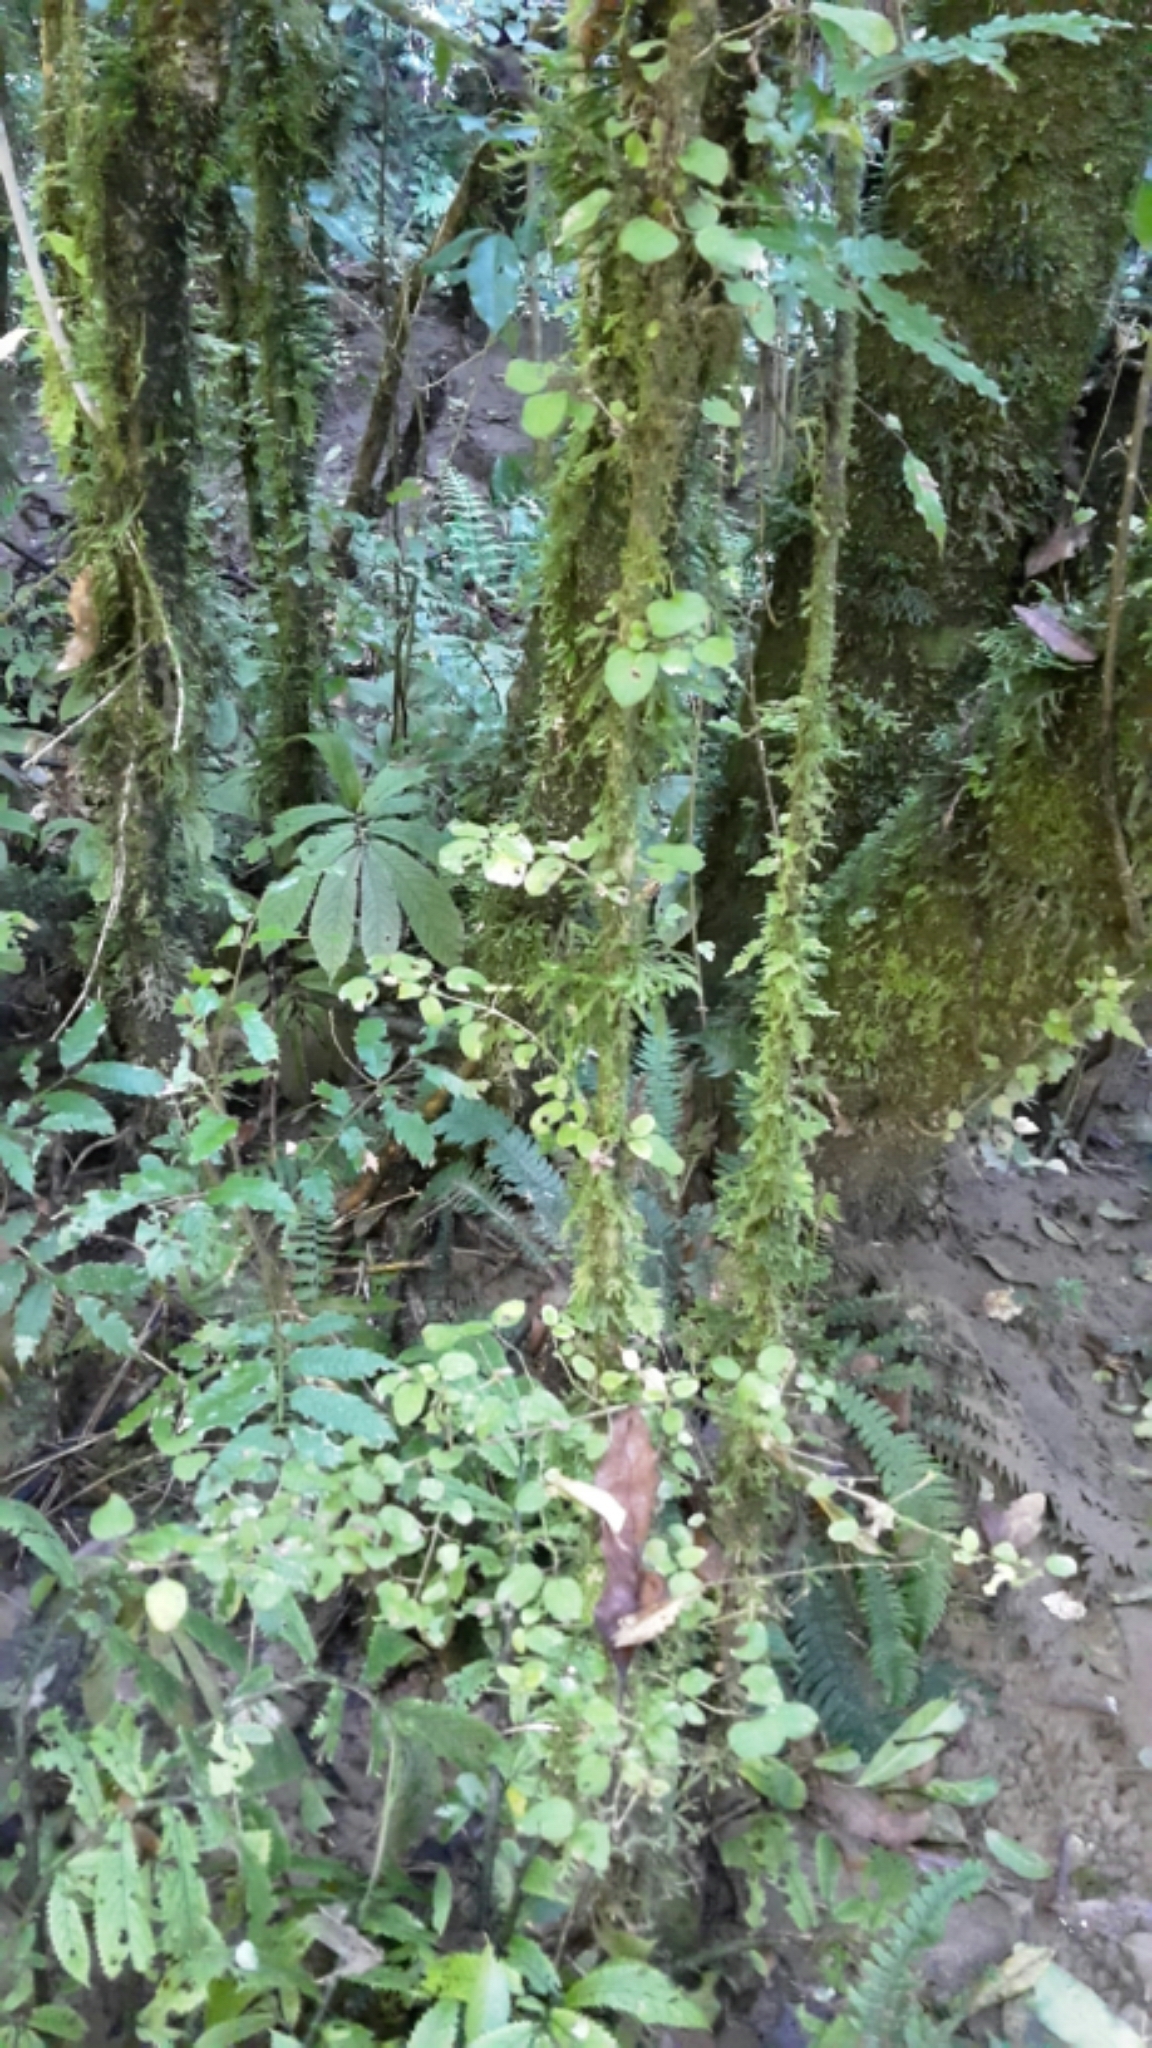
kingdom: Plantae
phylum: Tracheophyta
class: Magnoliopsida
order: Gentianales
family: Rubiaceae
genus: Coprosma
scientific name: Coprosma rotundifolia
